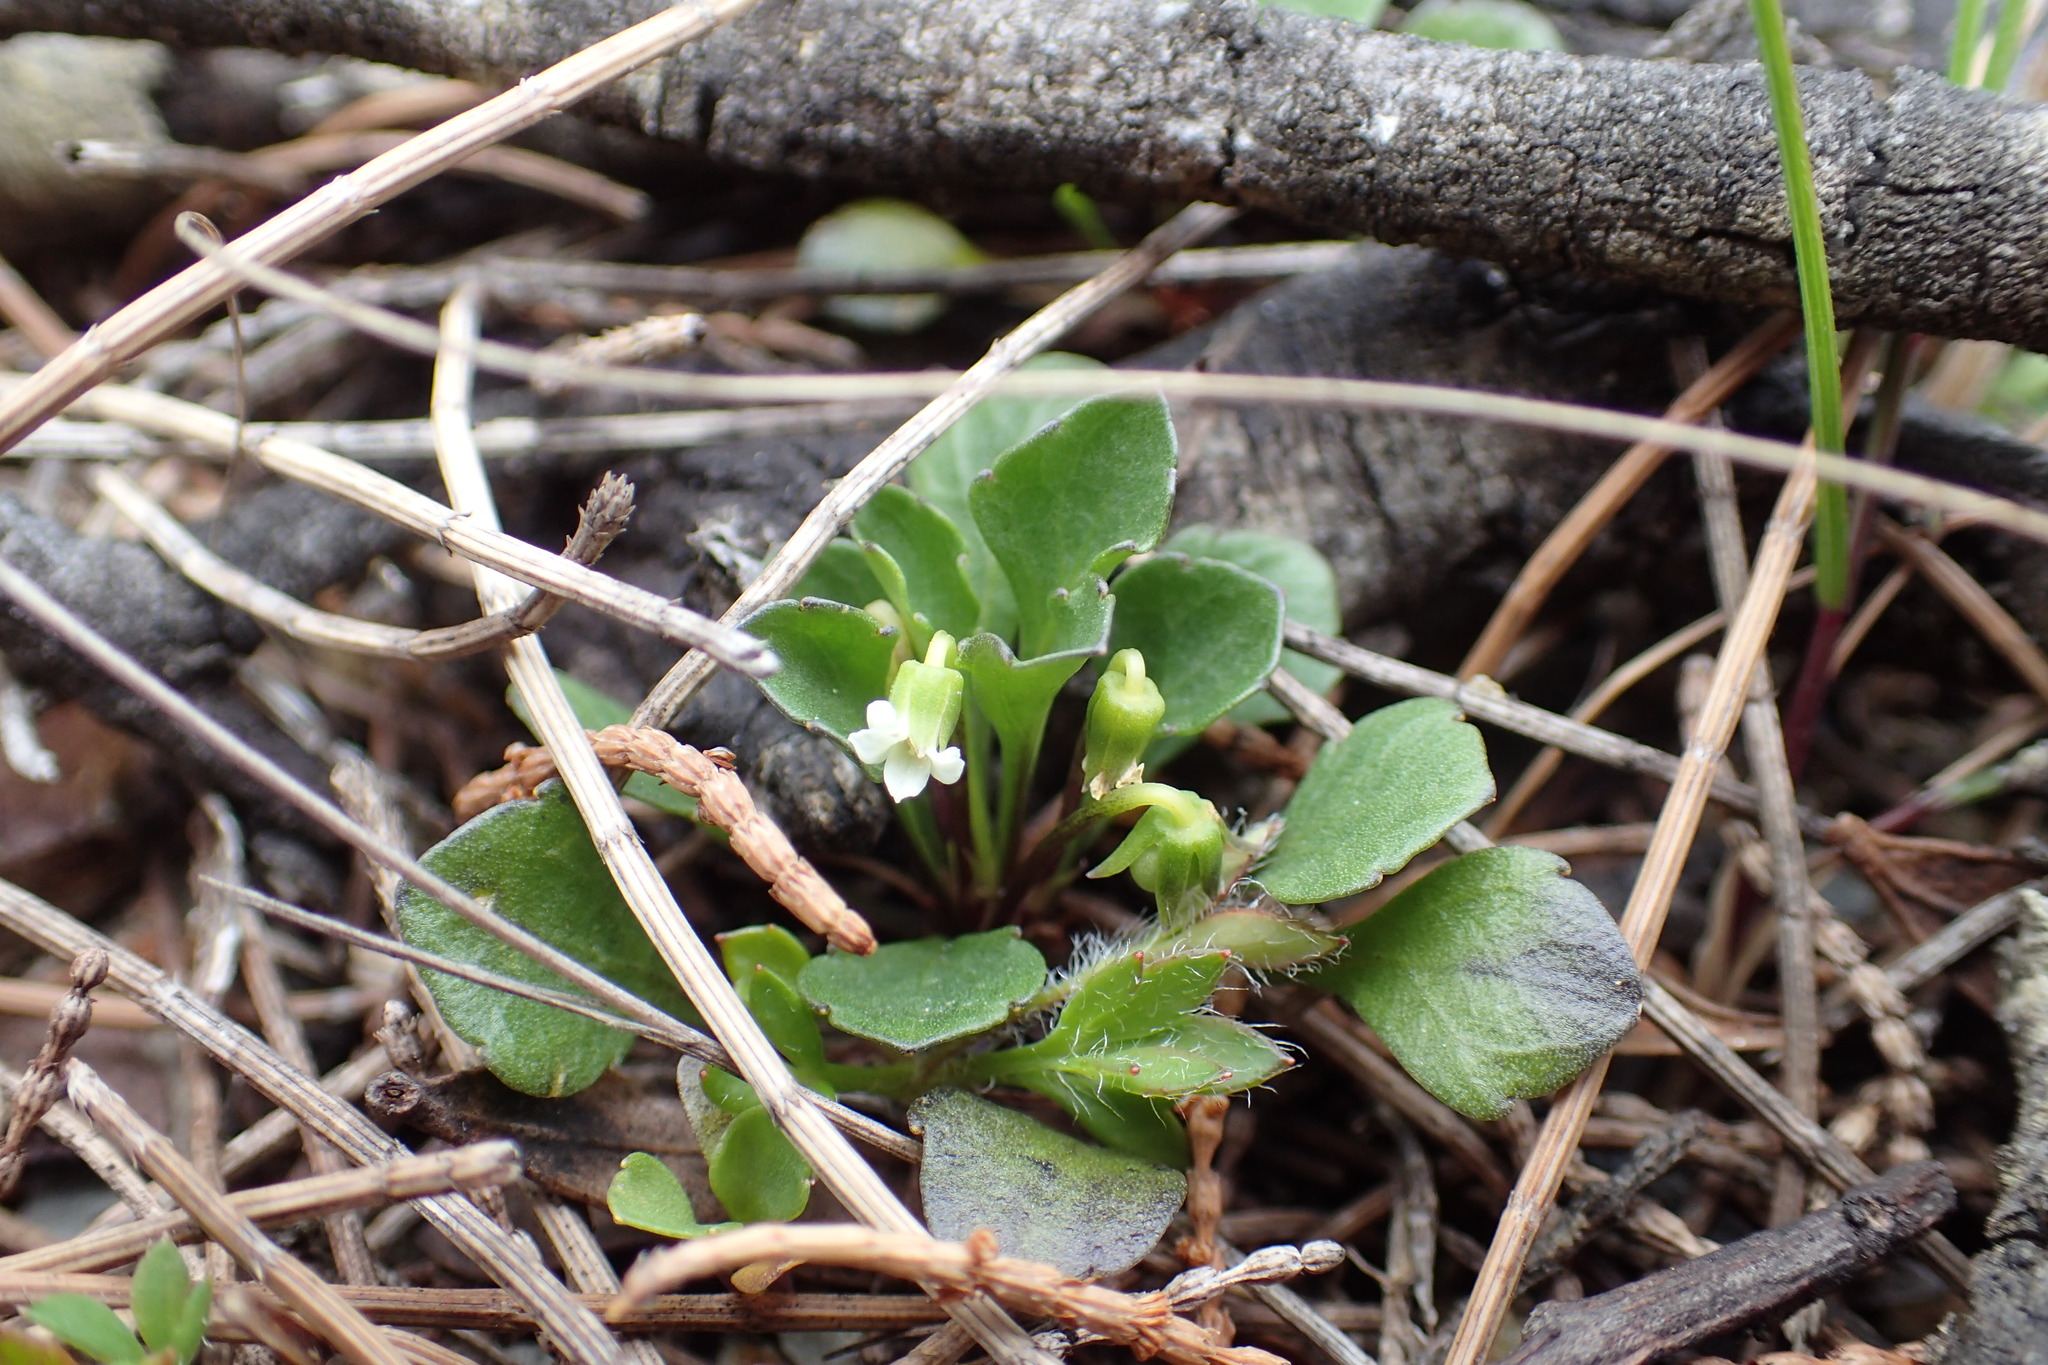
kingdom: Plantae
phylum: Tracheophyta
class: Magnoliopsida
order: Malpighiales
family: Violaceae
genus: Viola
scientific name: Viola cleistogamoides
